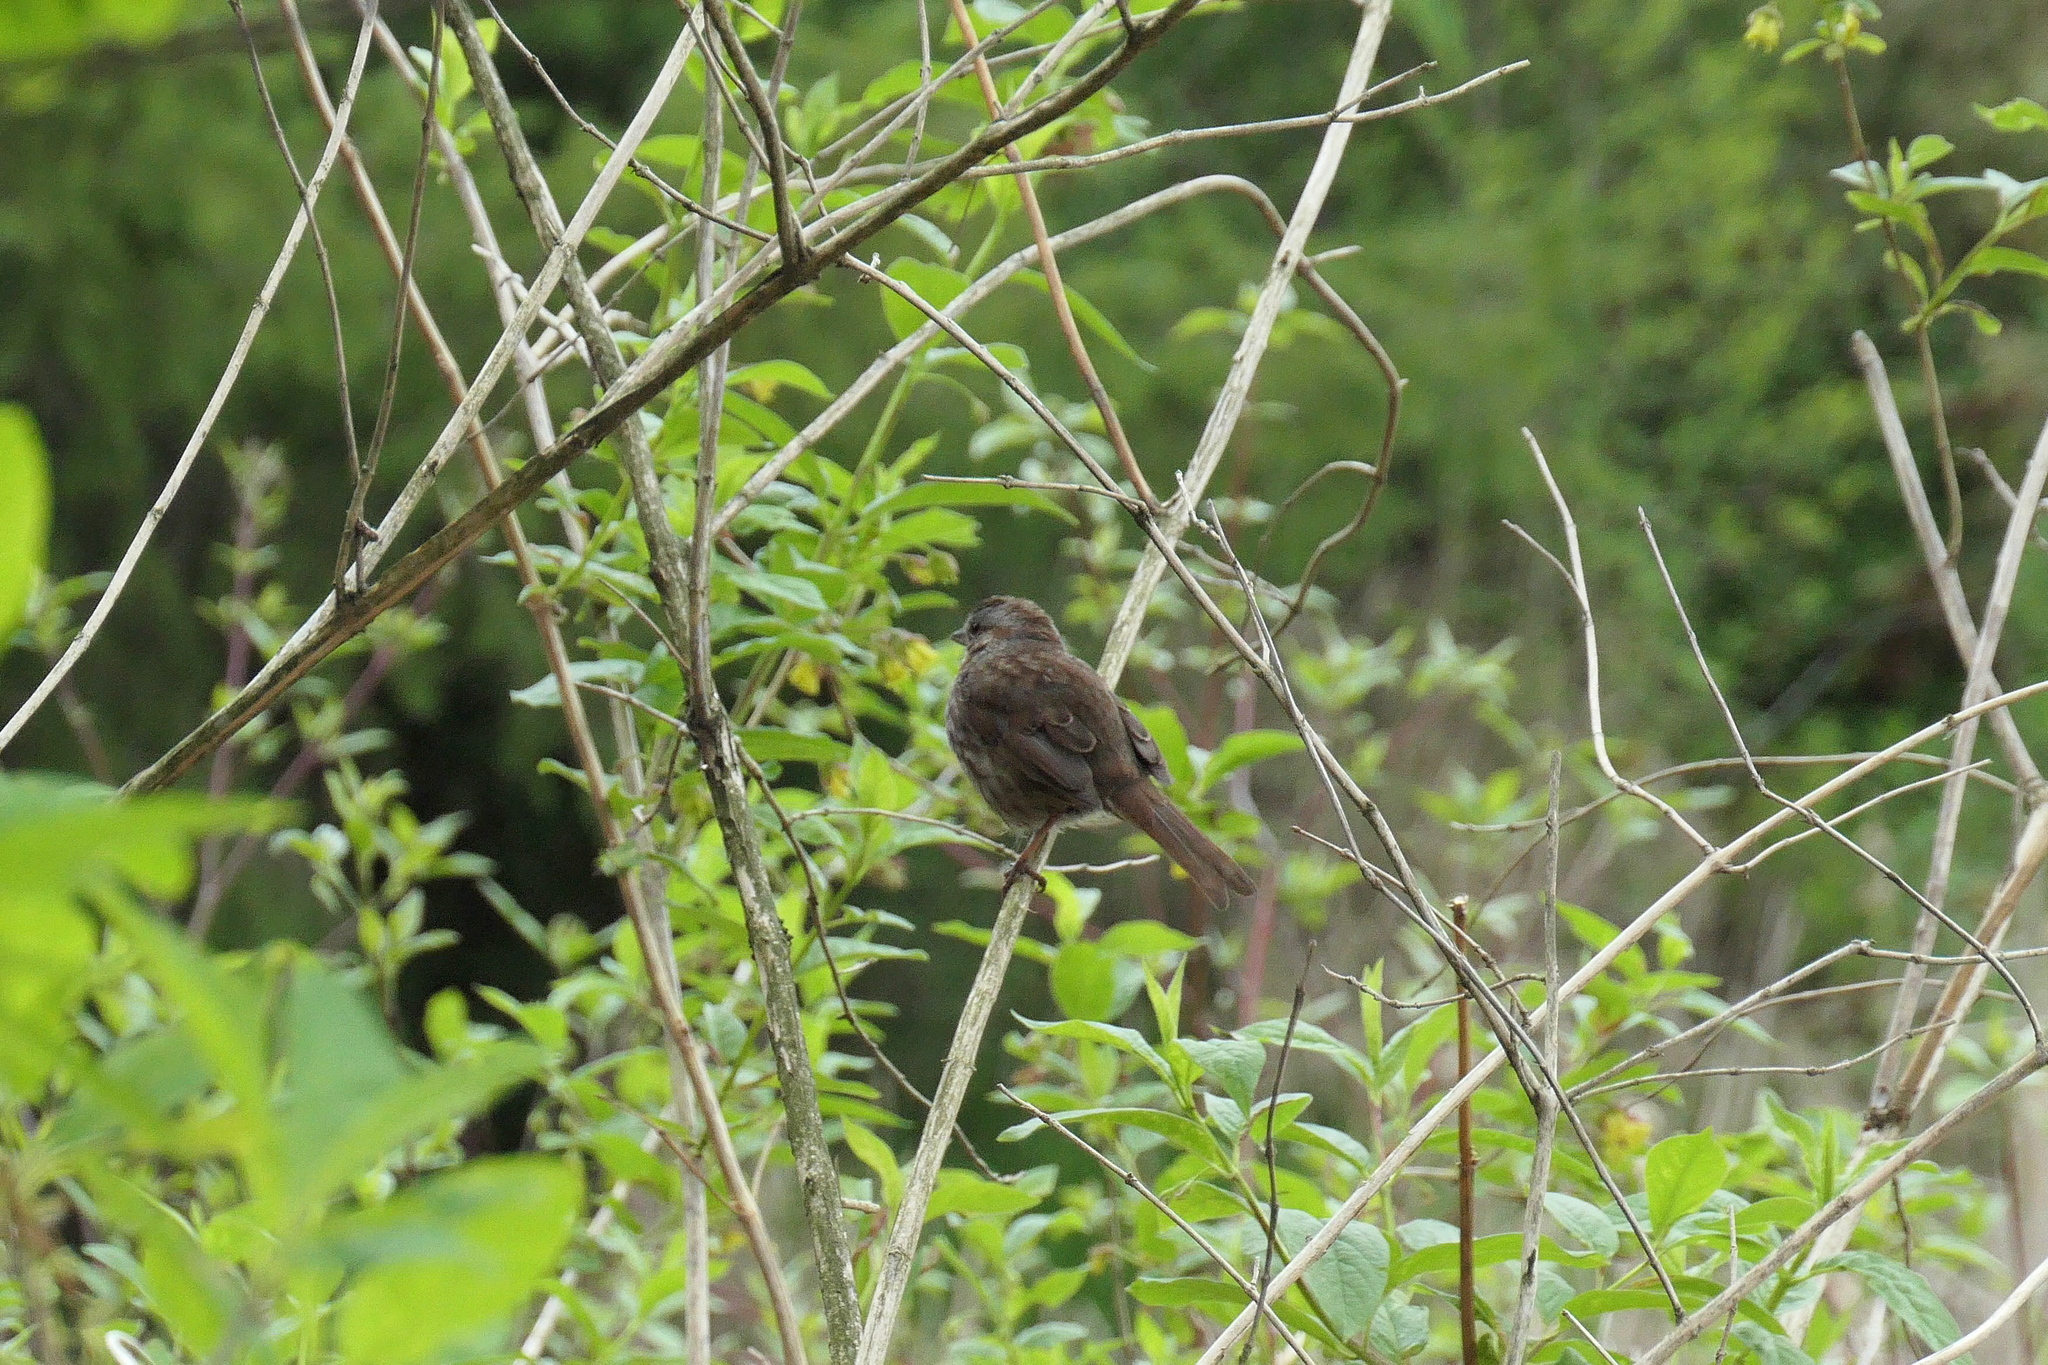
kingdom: Animalia
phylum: Chordata
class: Aves
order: Passeriformes
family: Passerellidae
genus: Melospiza
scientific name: Melospiza melodia
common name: Song sparrow
